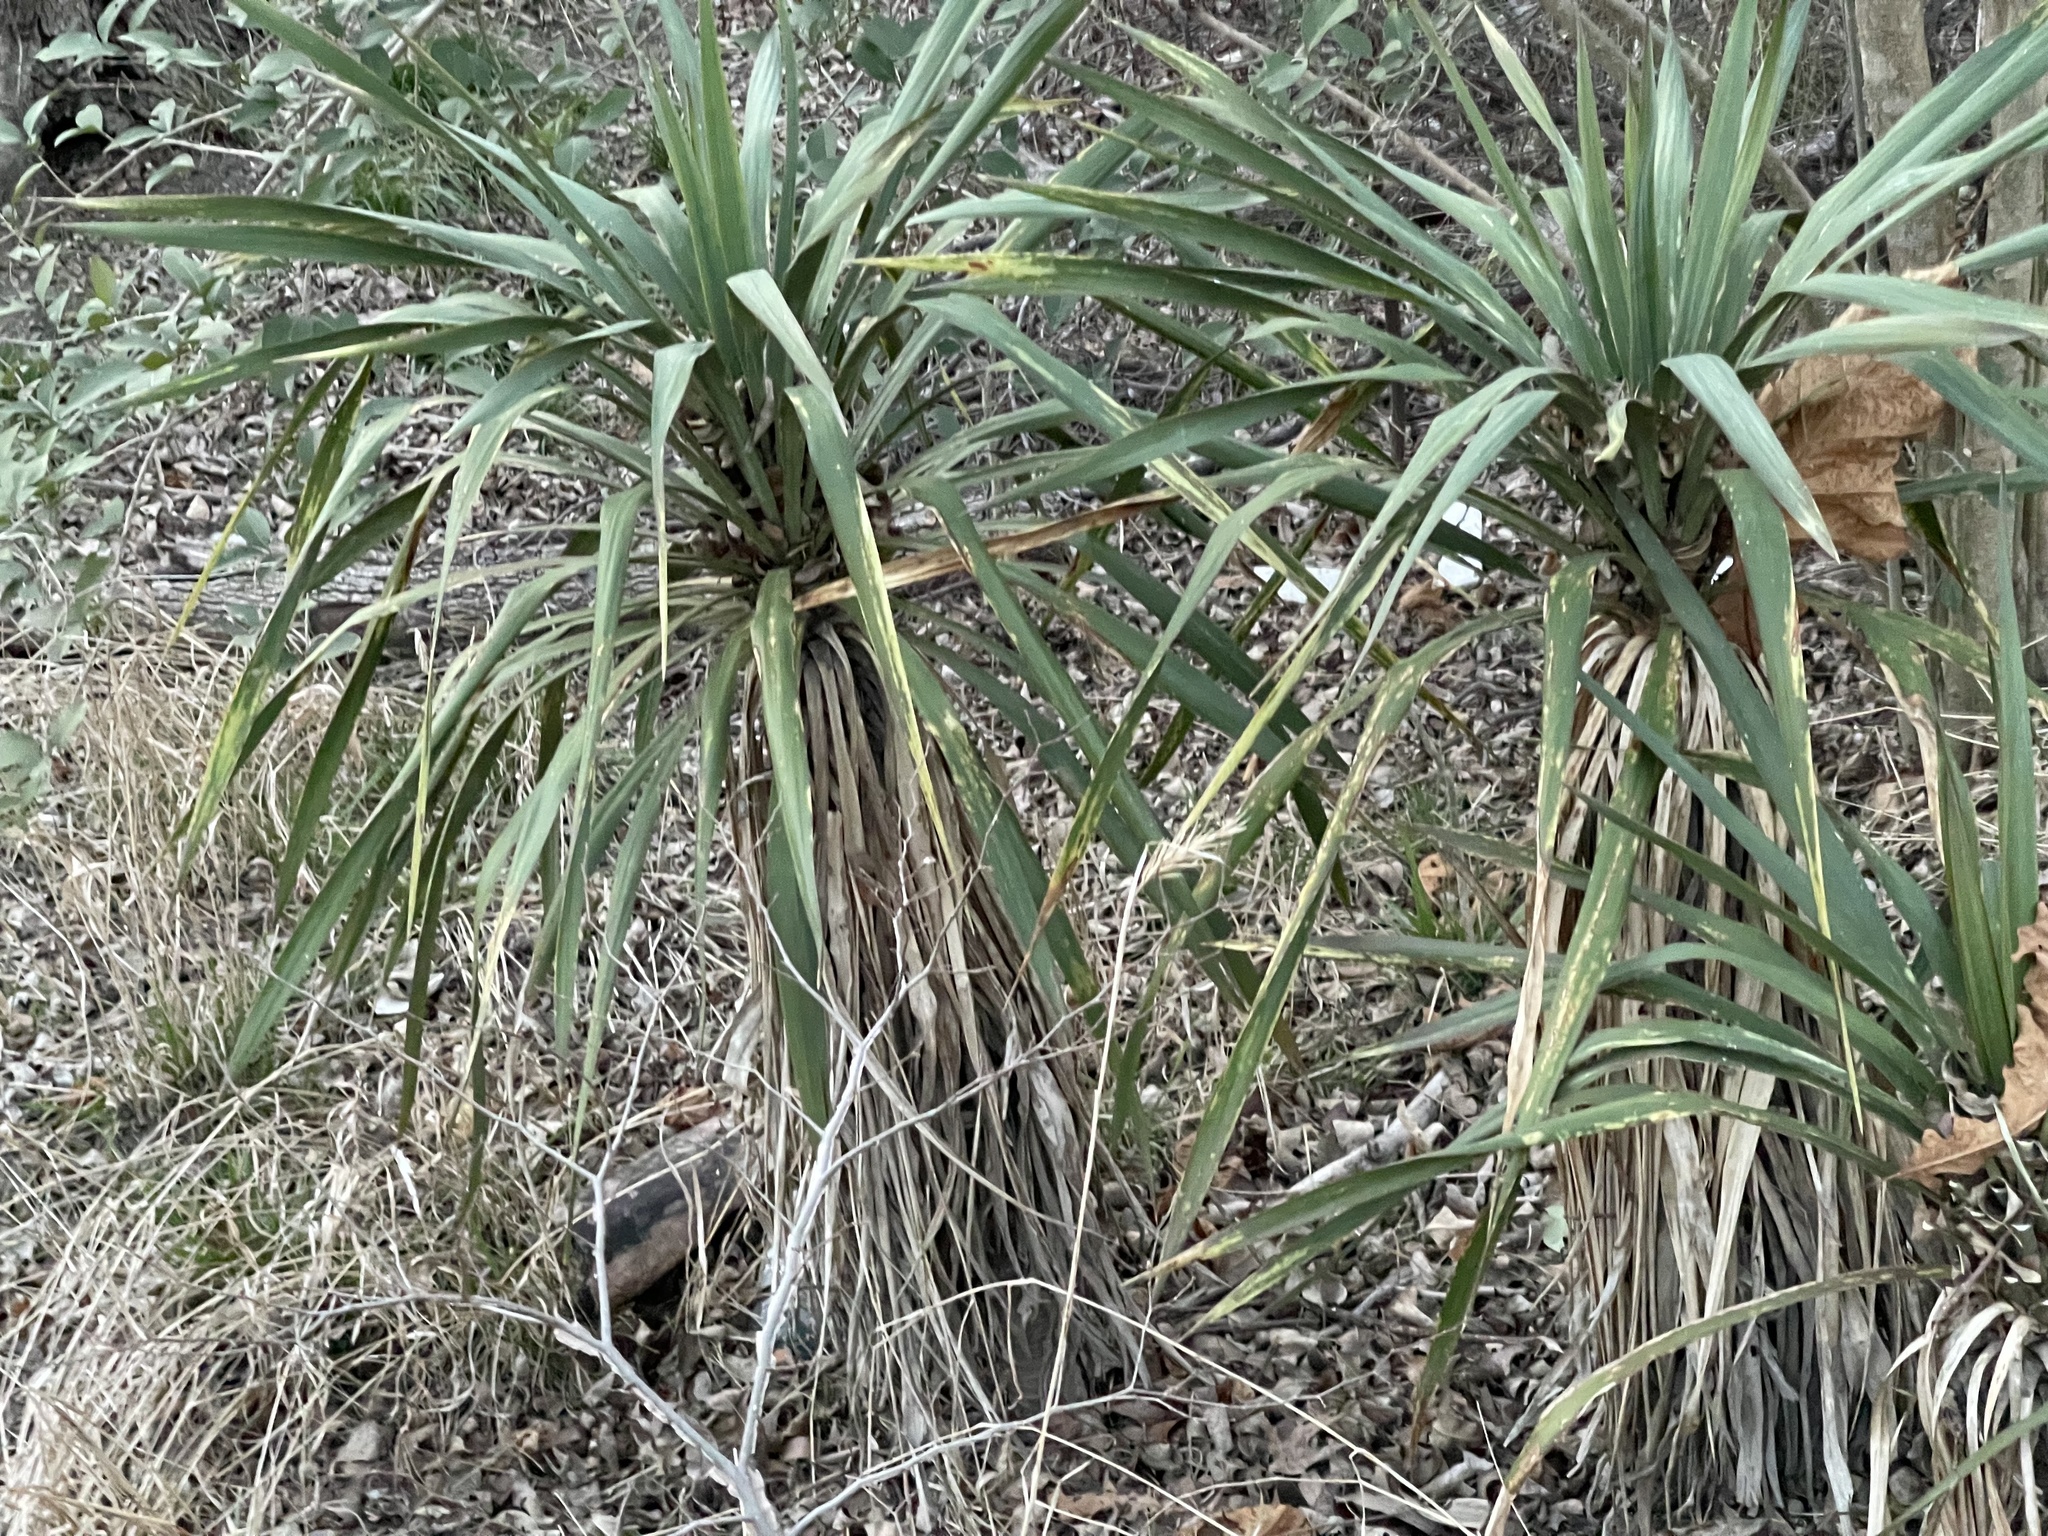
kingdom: Plantae
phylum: Tracheophyta
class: Liliopsida
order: Asparagales
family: Asparagaceae
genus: Yucca
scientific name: Yucca gloriosa
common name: Spanish-dagger
